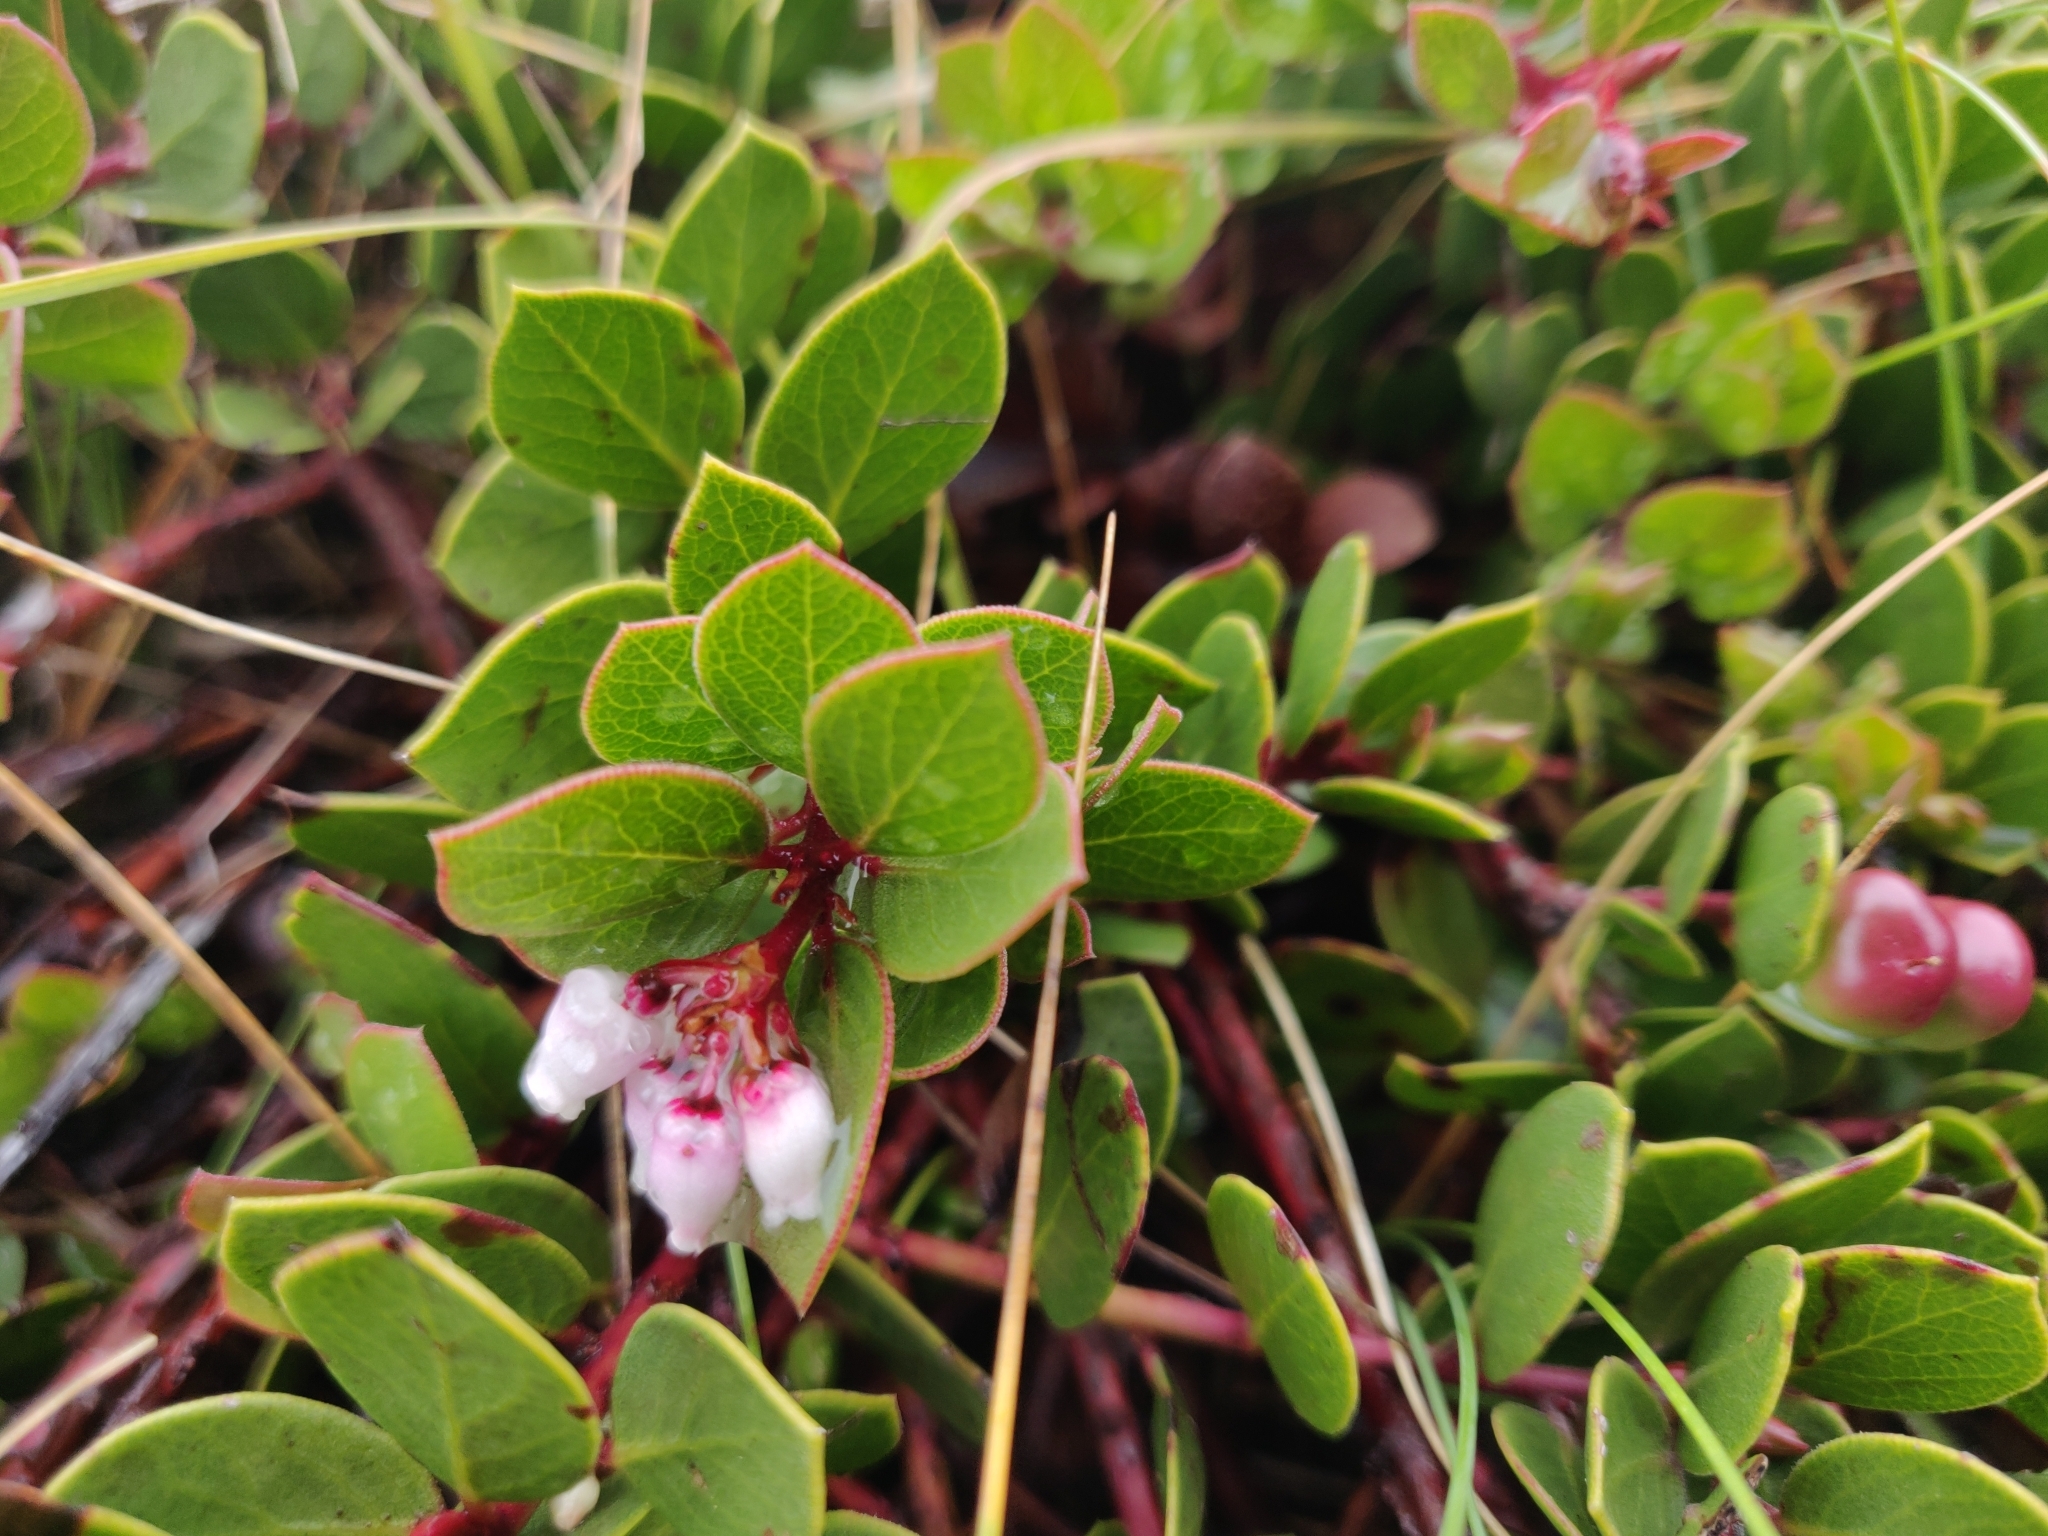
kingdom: Plantae
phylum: Tracheophyta
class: Magnoliopsida
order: Ericales
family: Ericaceae
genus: Arctostaphylos
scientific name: Arctostaphylos hookeri
